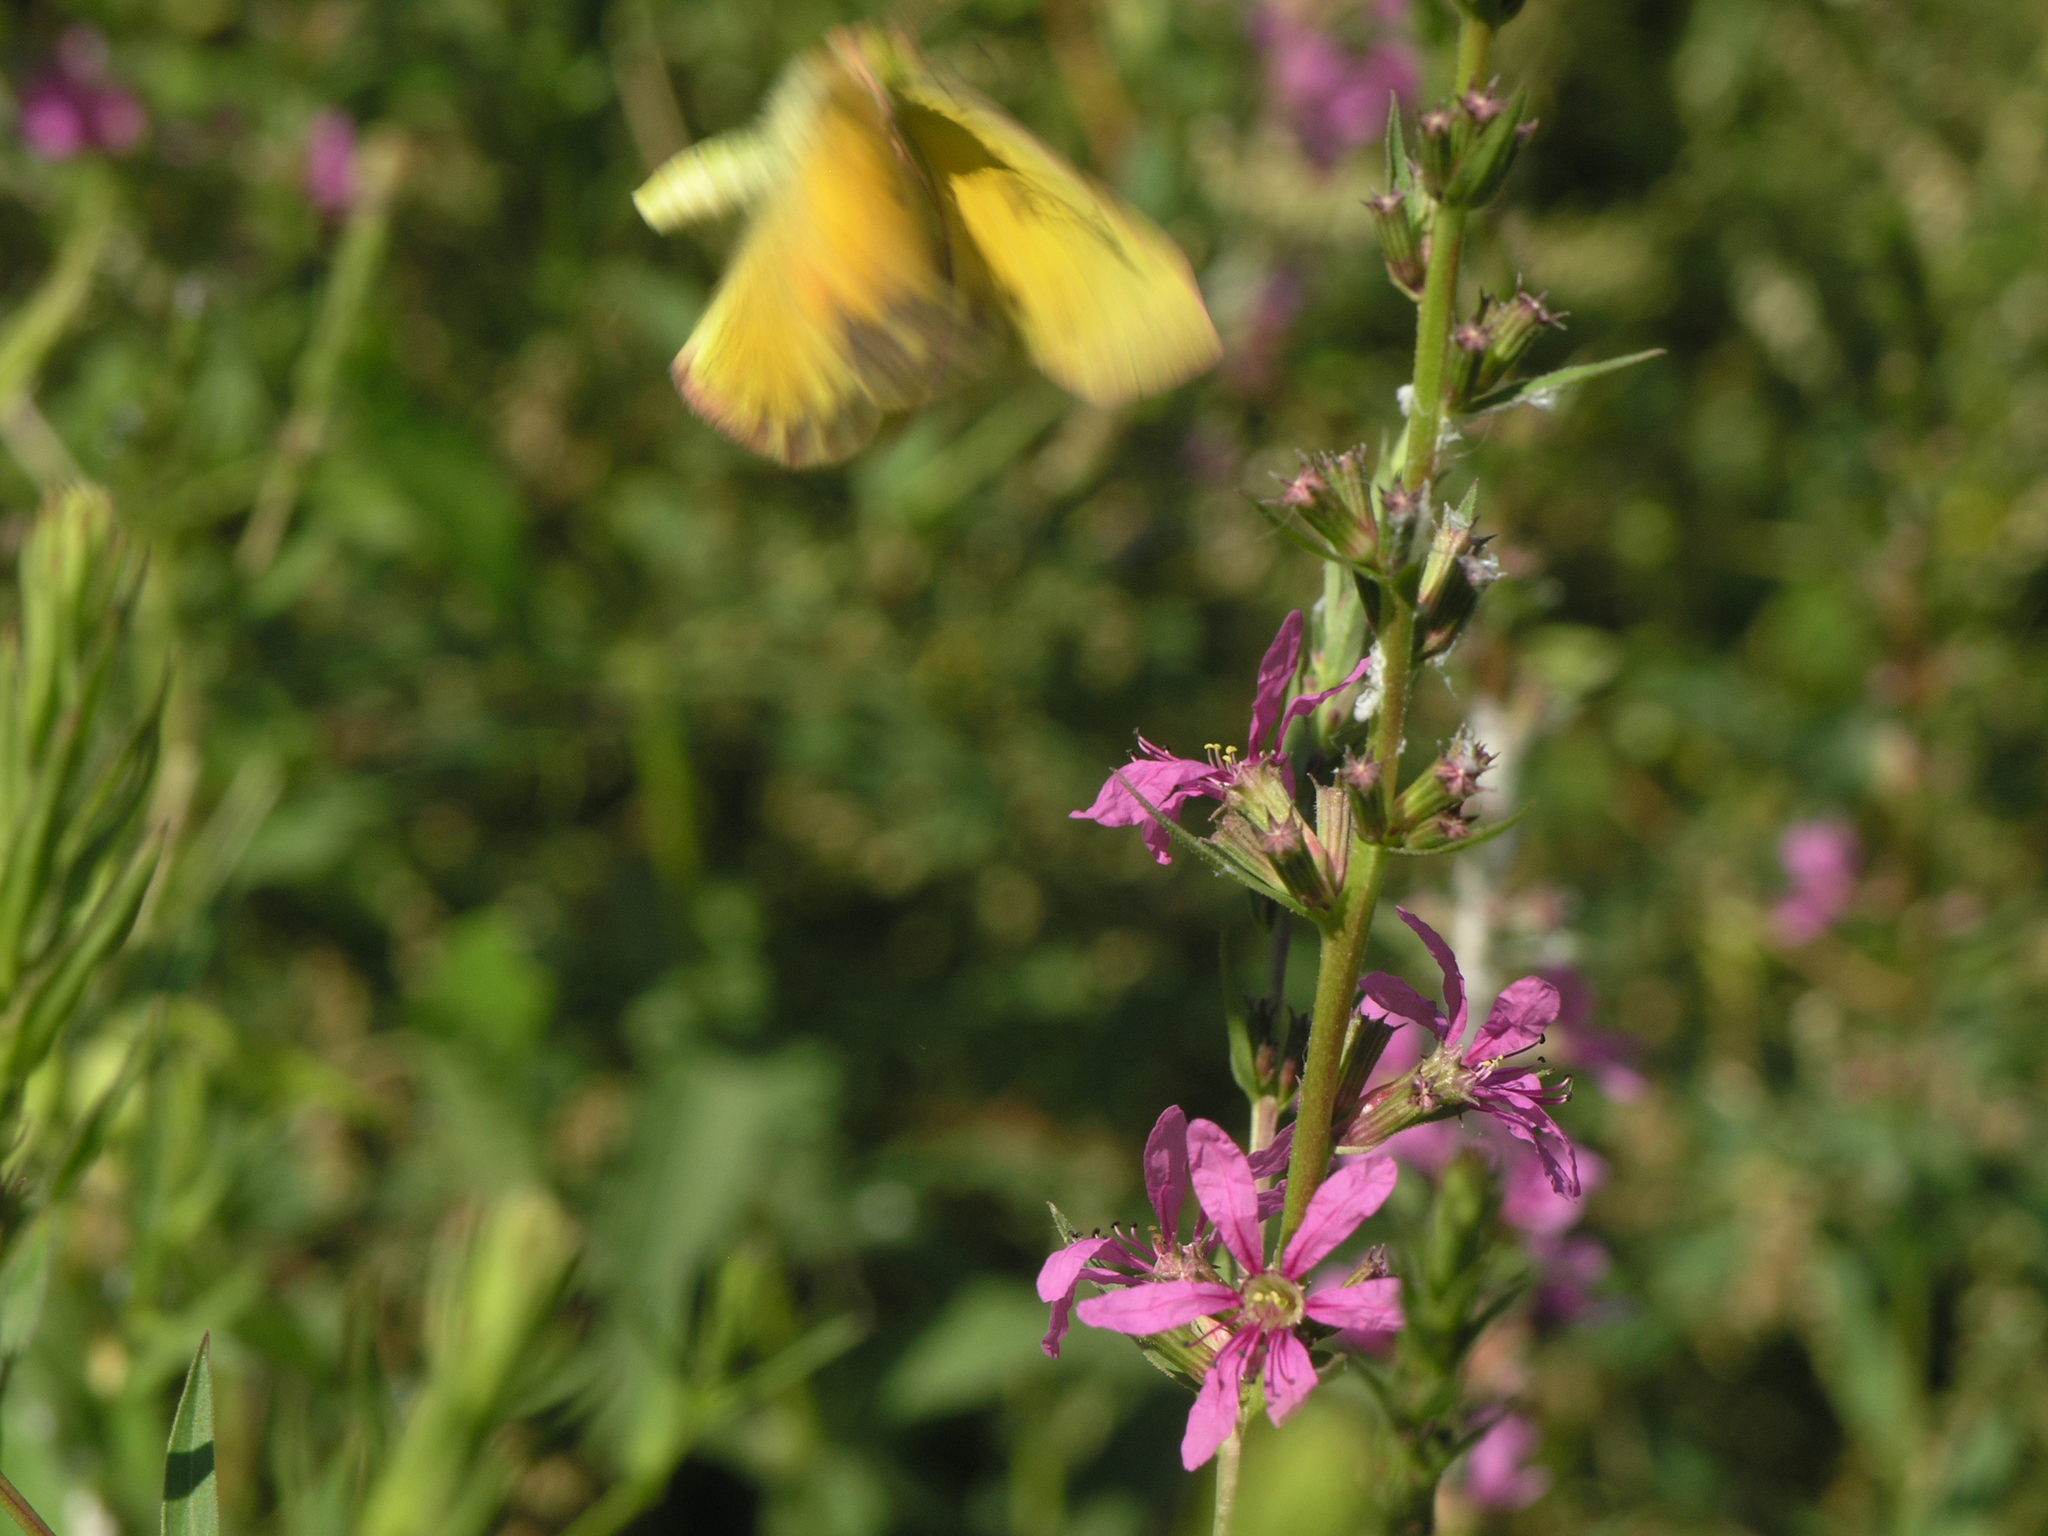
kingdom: Plantae
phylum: Tracheophyta
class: Magnoliopsida
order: Myrtales
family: Lythraceae
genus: Lythrum
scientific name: Lythrum virgatum
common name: European wand loosestrife
